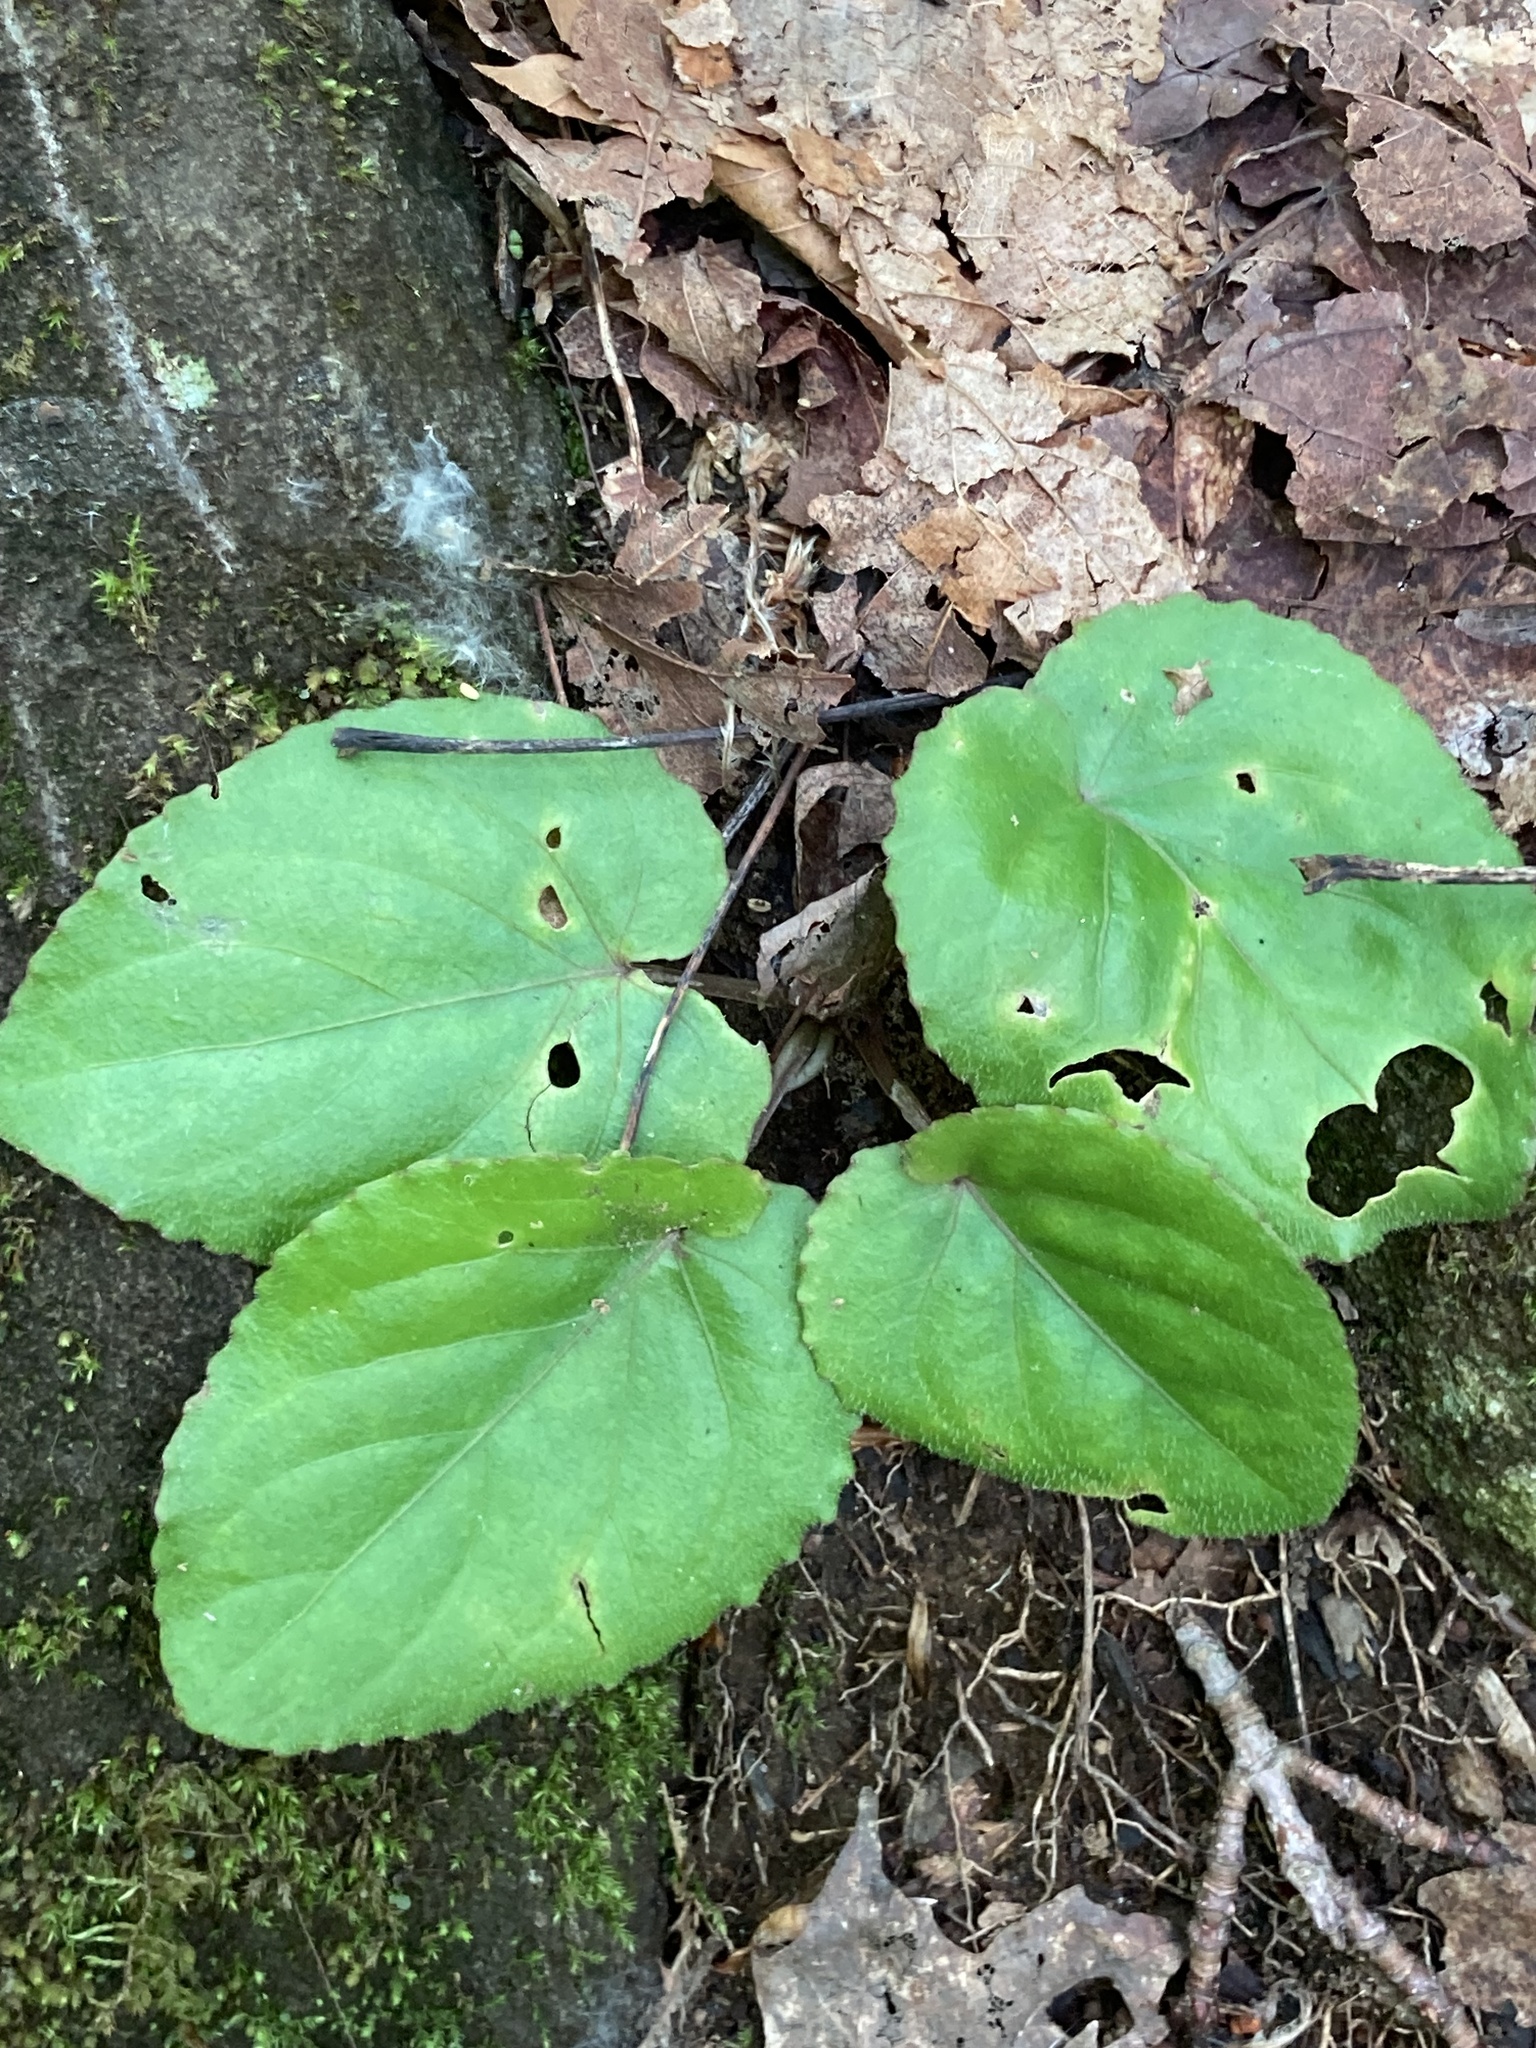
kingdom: Plantae
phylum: Tracheophyta
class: Magnoliopsida
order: Malpighiales
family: Violaceae
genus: Viola
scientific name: Viola rotundifolia
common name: Early yellow violet
